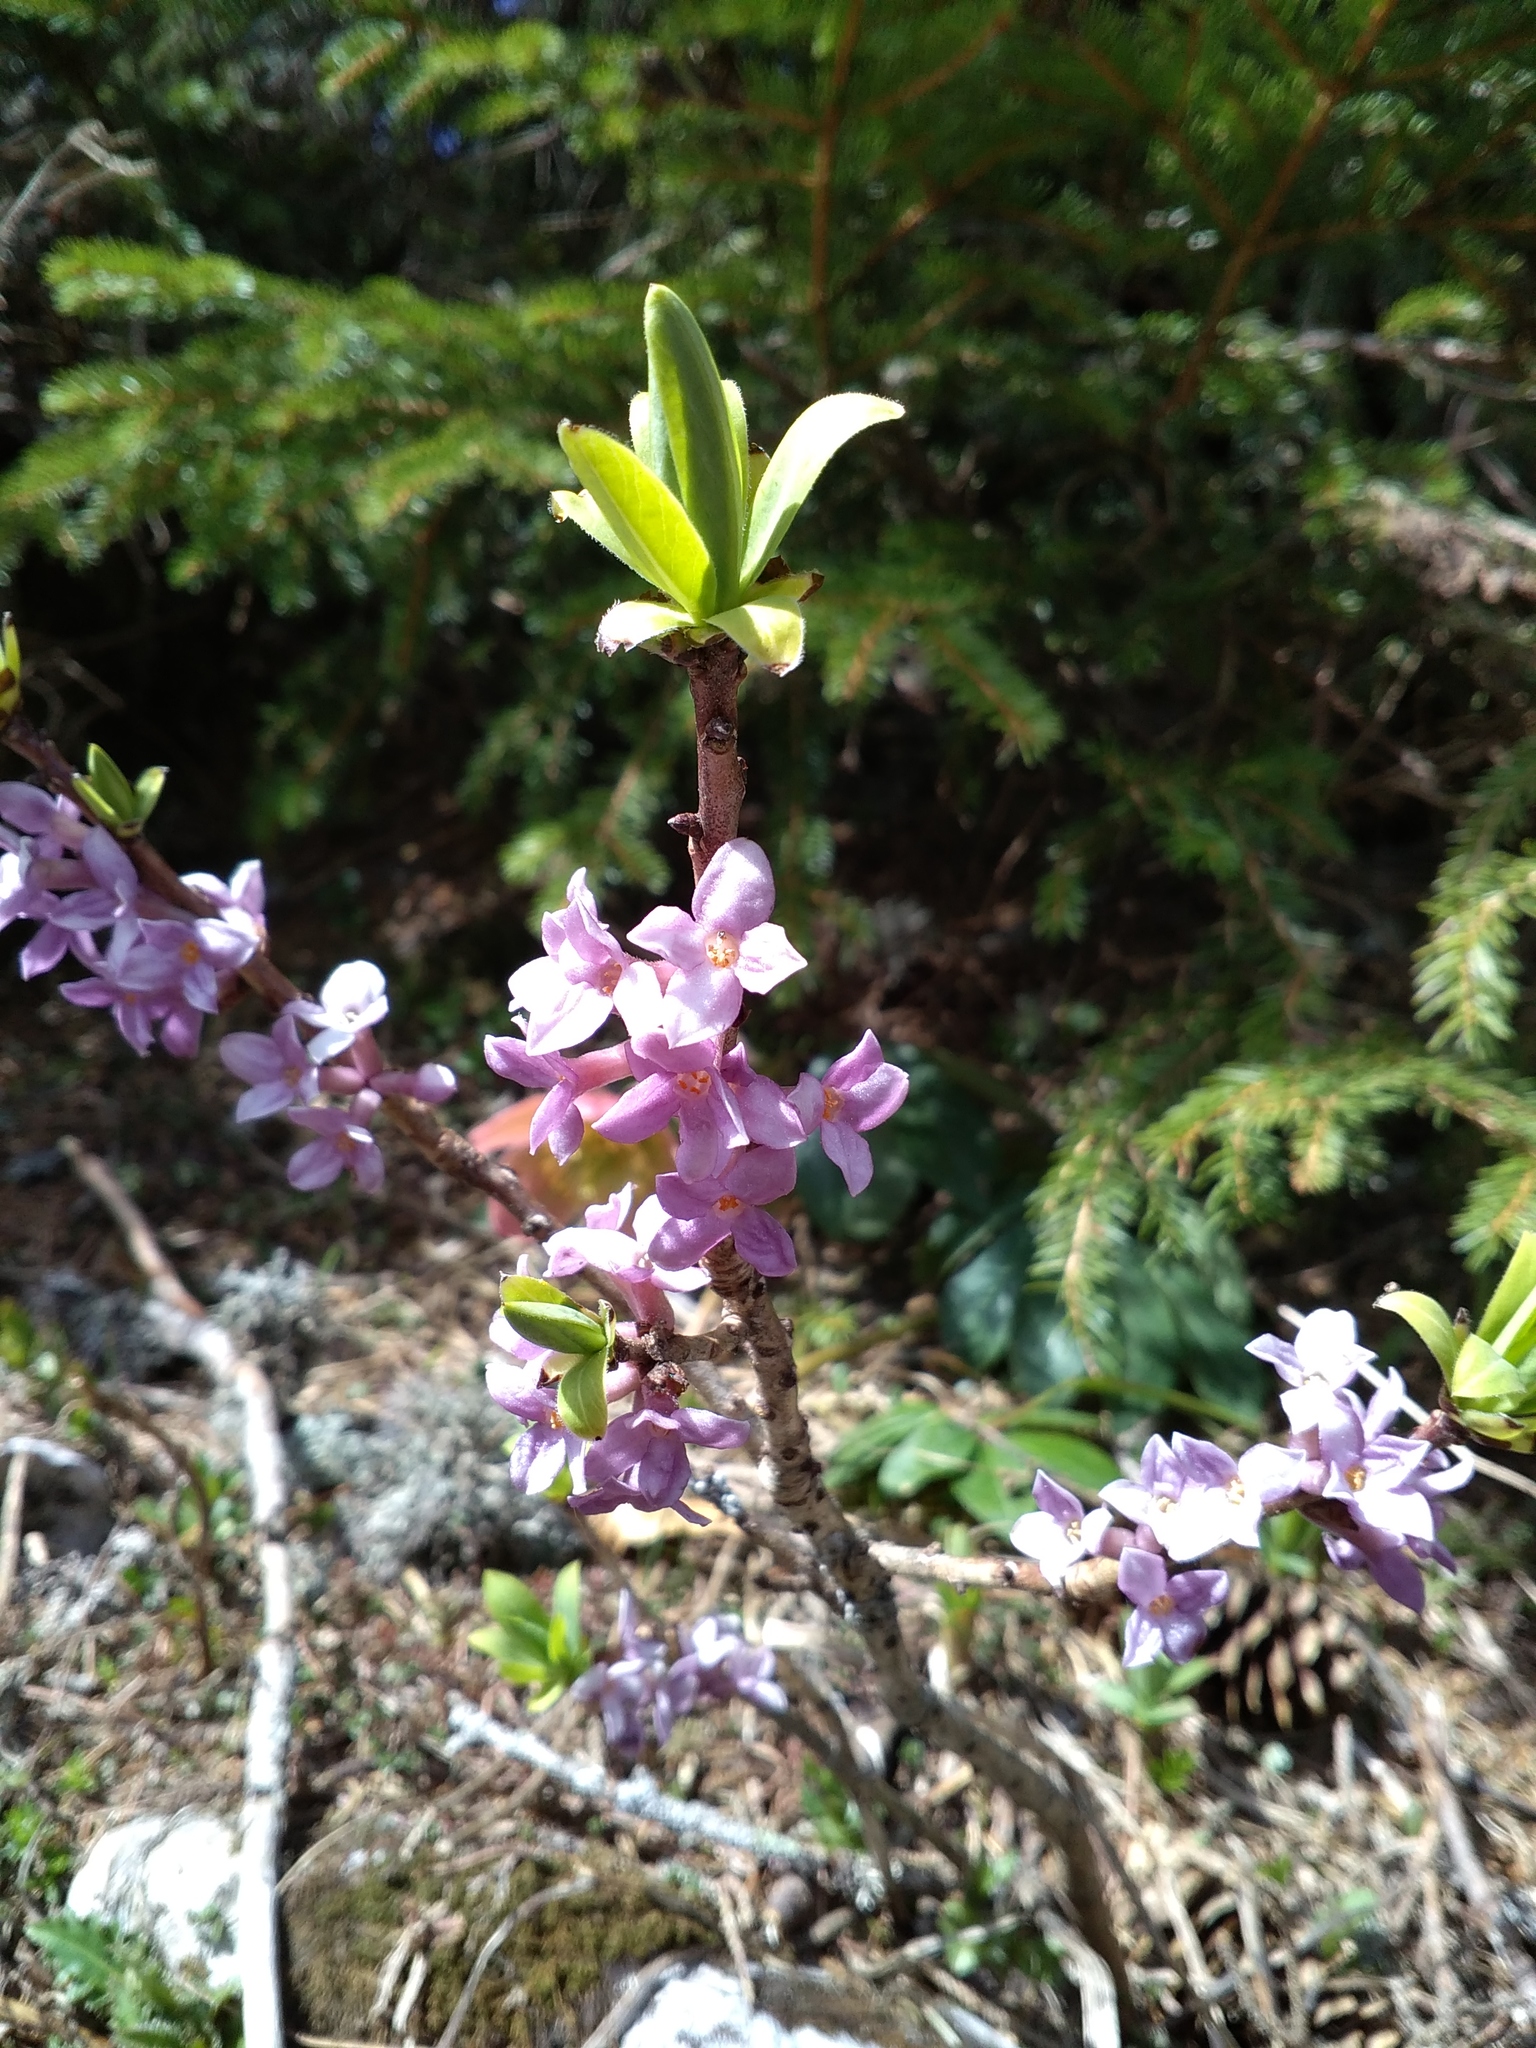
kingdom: Plantae
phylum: Tracheophyta
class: Magnoliopsida
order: Malvales
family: Thymelaeaceae
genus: Daphne
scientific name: Daphne mezereum
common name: Mezereon
